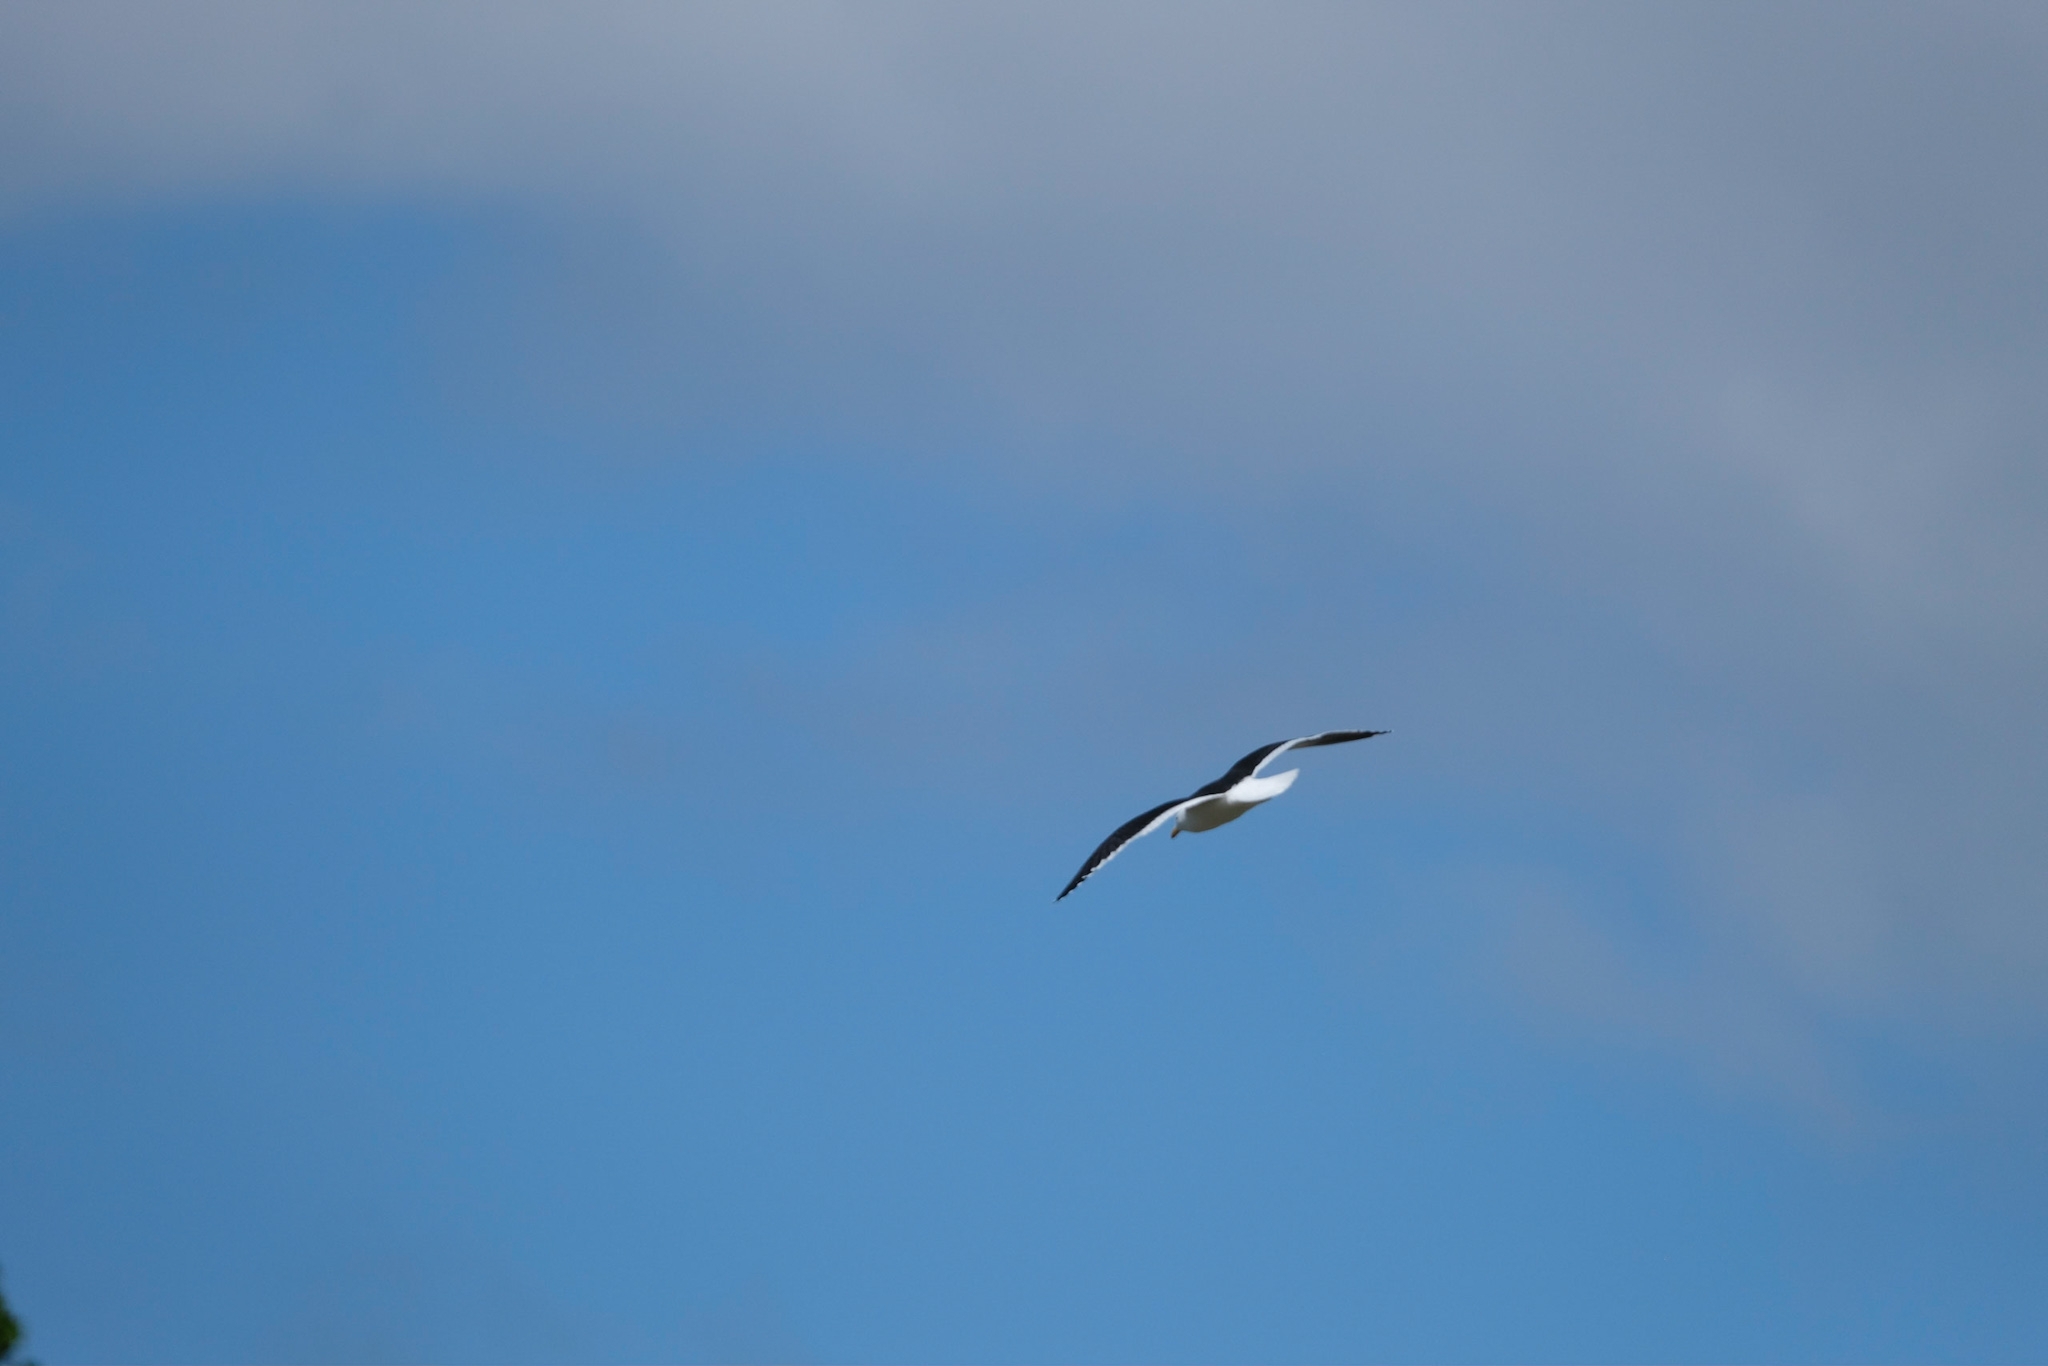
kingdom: Animalia
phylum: Chordata
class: Aves
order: Charadriiformes
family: Laridae
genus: Larus
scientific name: Larus dominicanus
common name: Kelp gull
